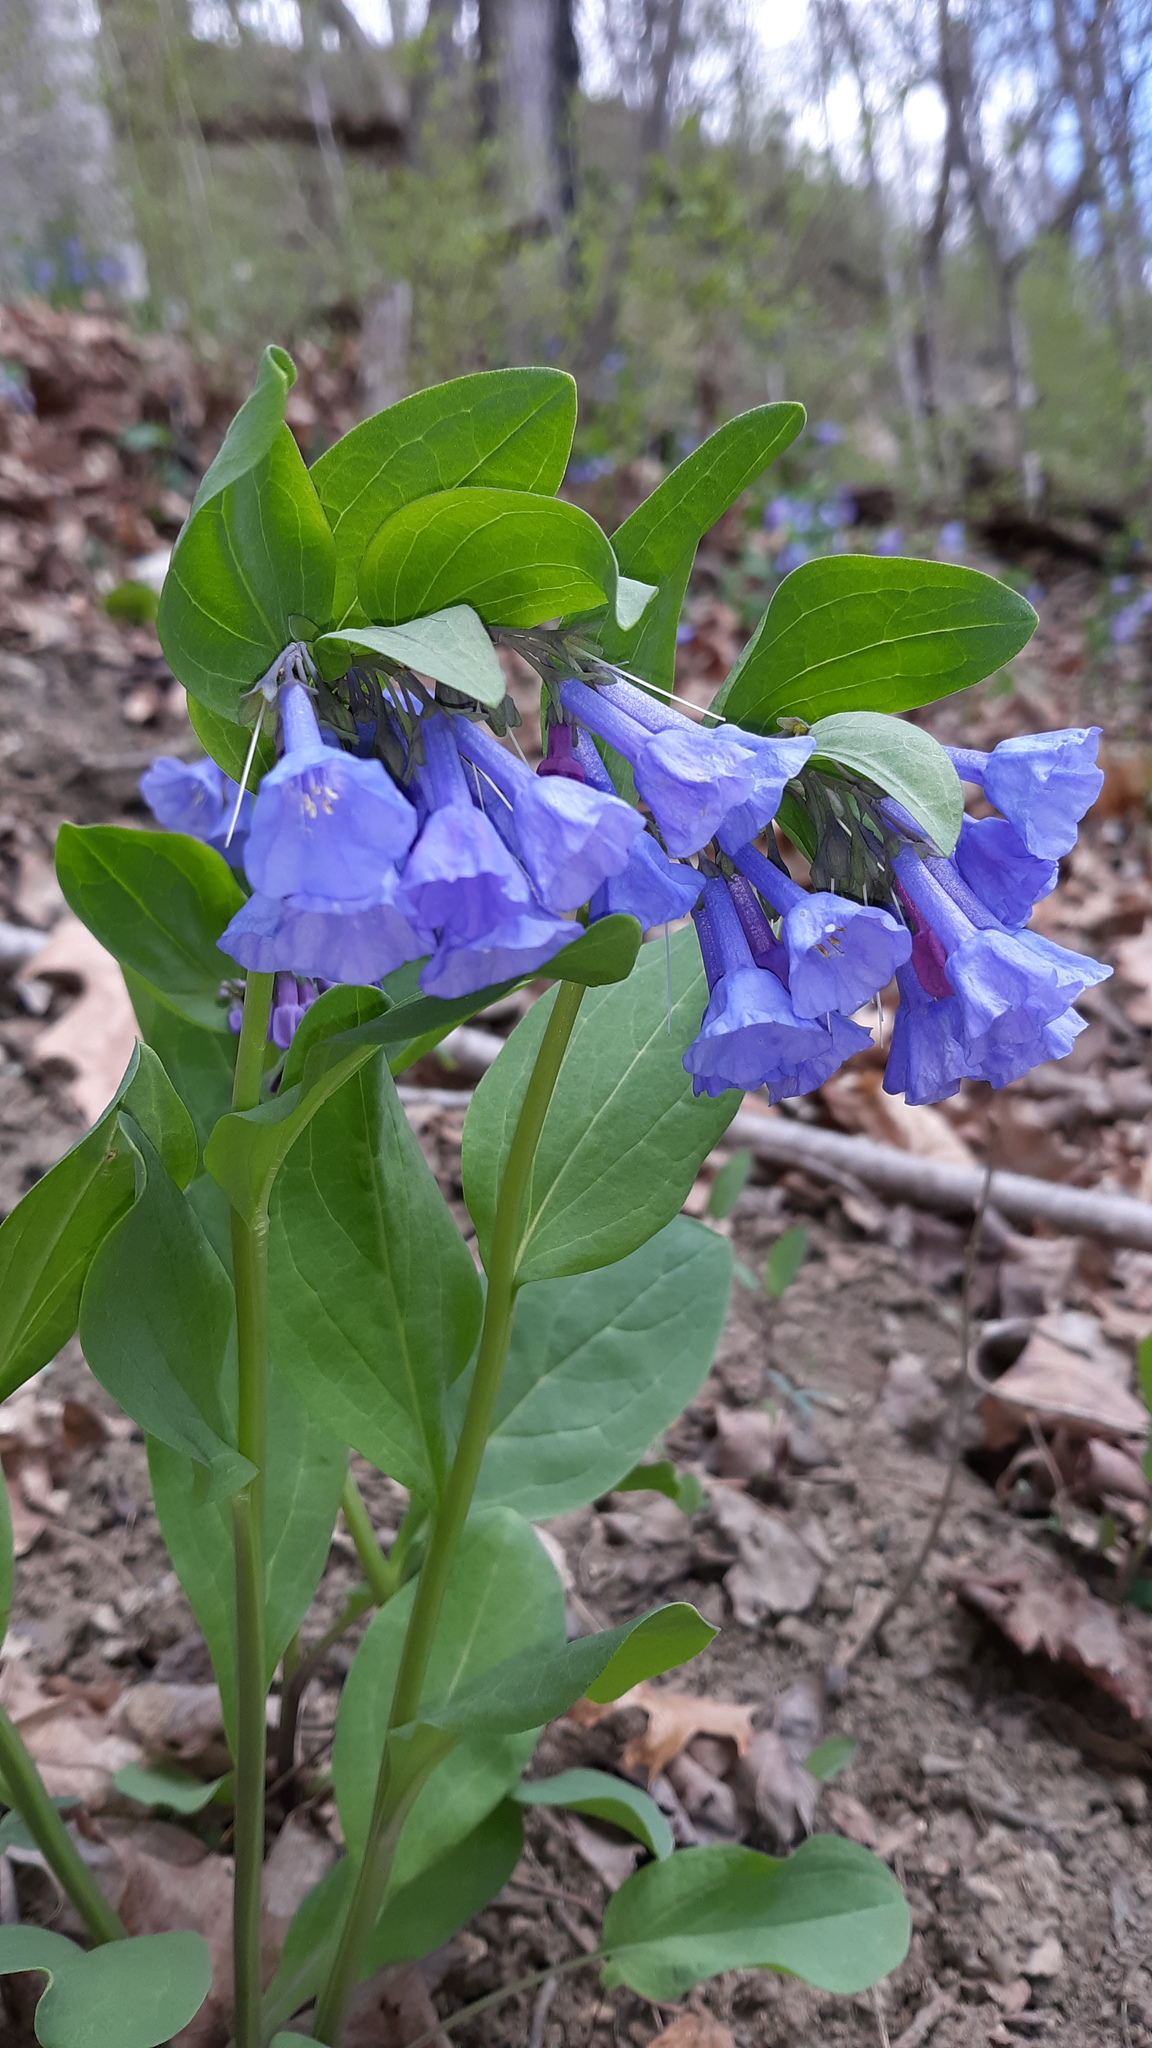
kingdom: Plantae
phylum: Tracheophyta
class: Magnoliopsida
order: Boraginales
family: Boraginaceae
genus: Mertensia
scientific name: Mertensia virginica
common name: Virginia bluebells
